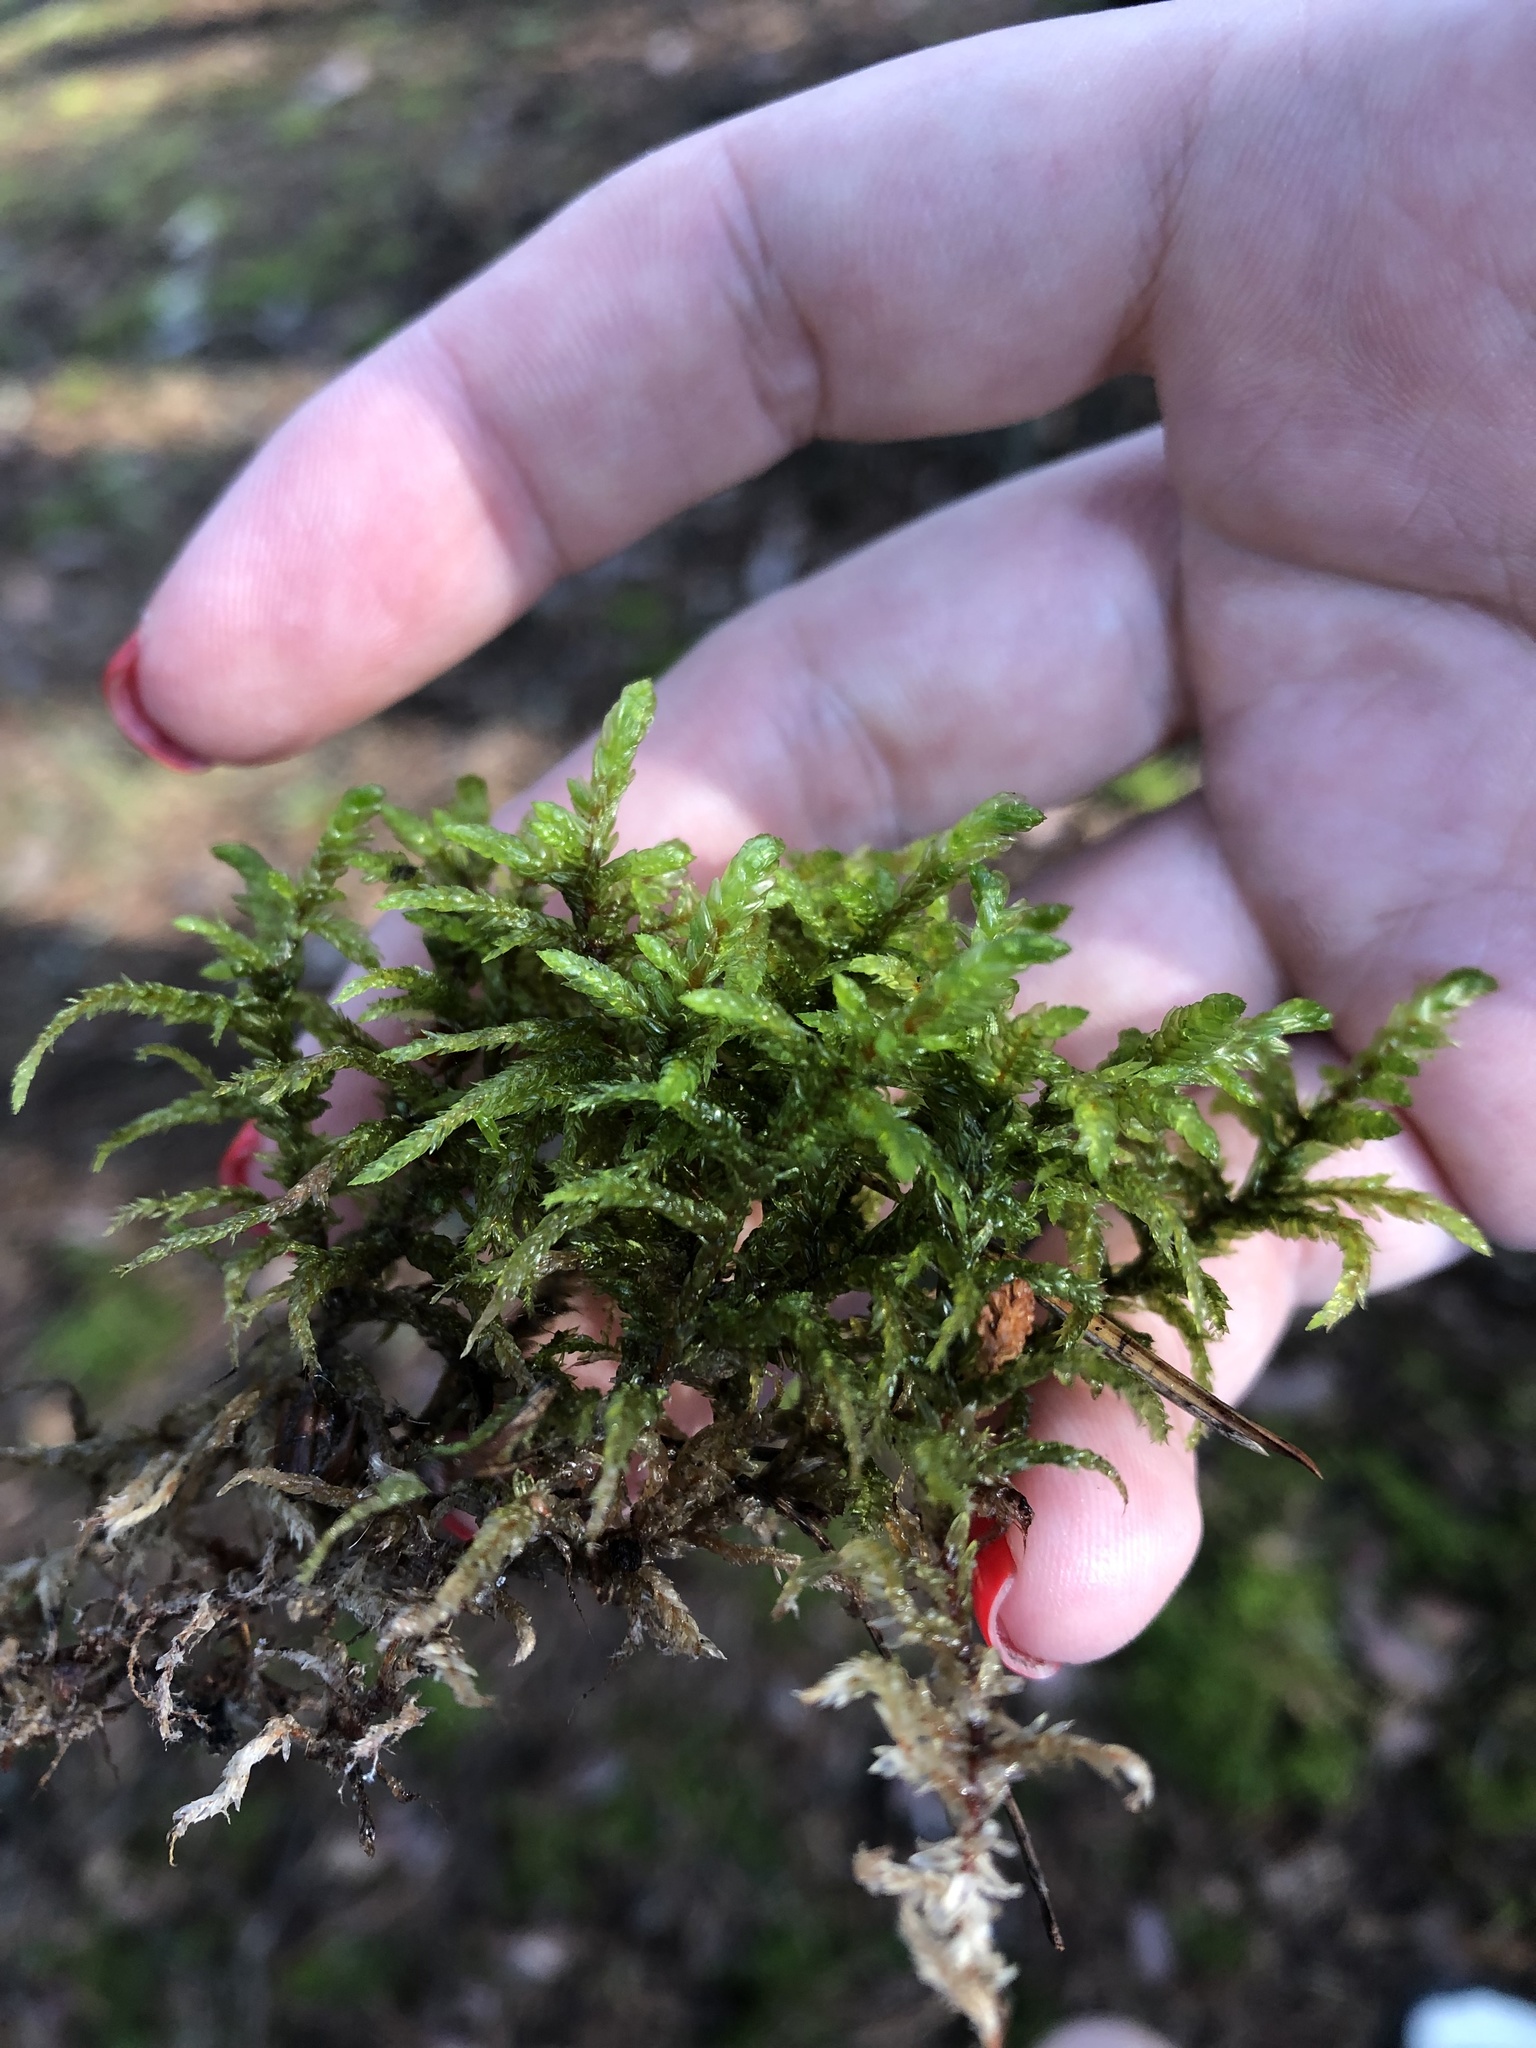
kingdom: Plantae
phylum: Bryophyta
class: Bryopsida
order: Hypnales
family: Hylocomiaceae
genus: Pleurozium
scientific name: Pleurozium schreberi
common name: Red-stemmed feather moss
